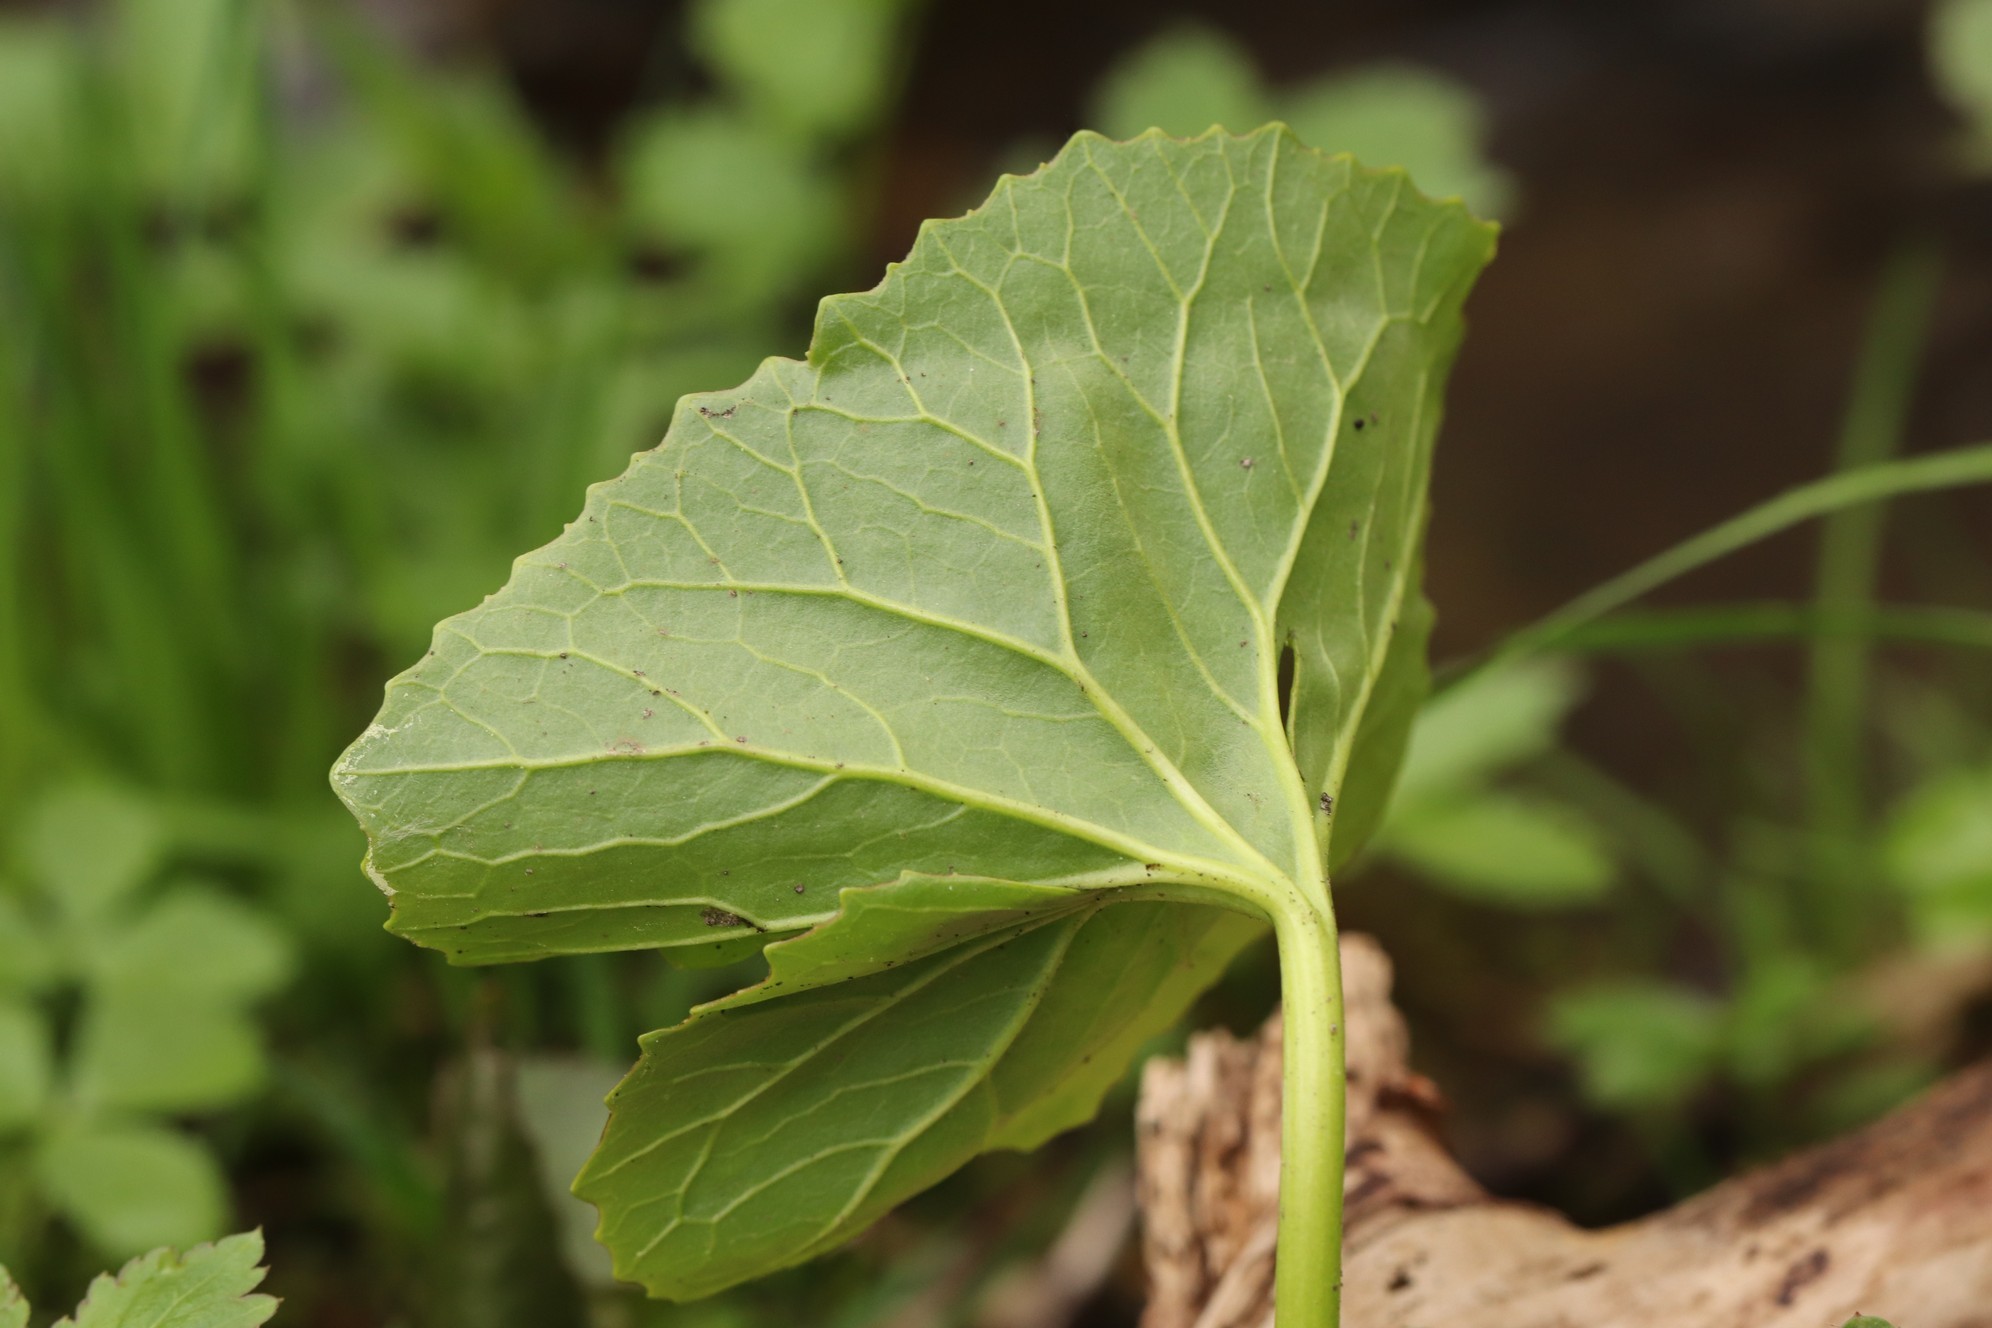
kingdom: Plantae
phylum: Tracheophyta
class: Magnoliopsida
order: Asterales
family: Asteraceae
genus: Petasites
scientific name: Petasites radiatus
